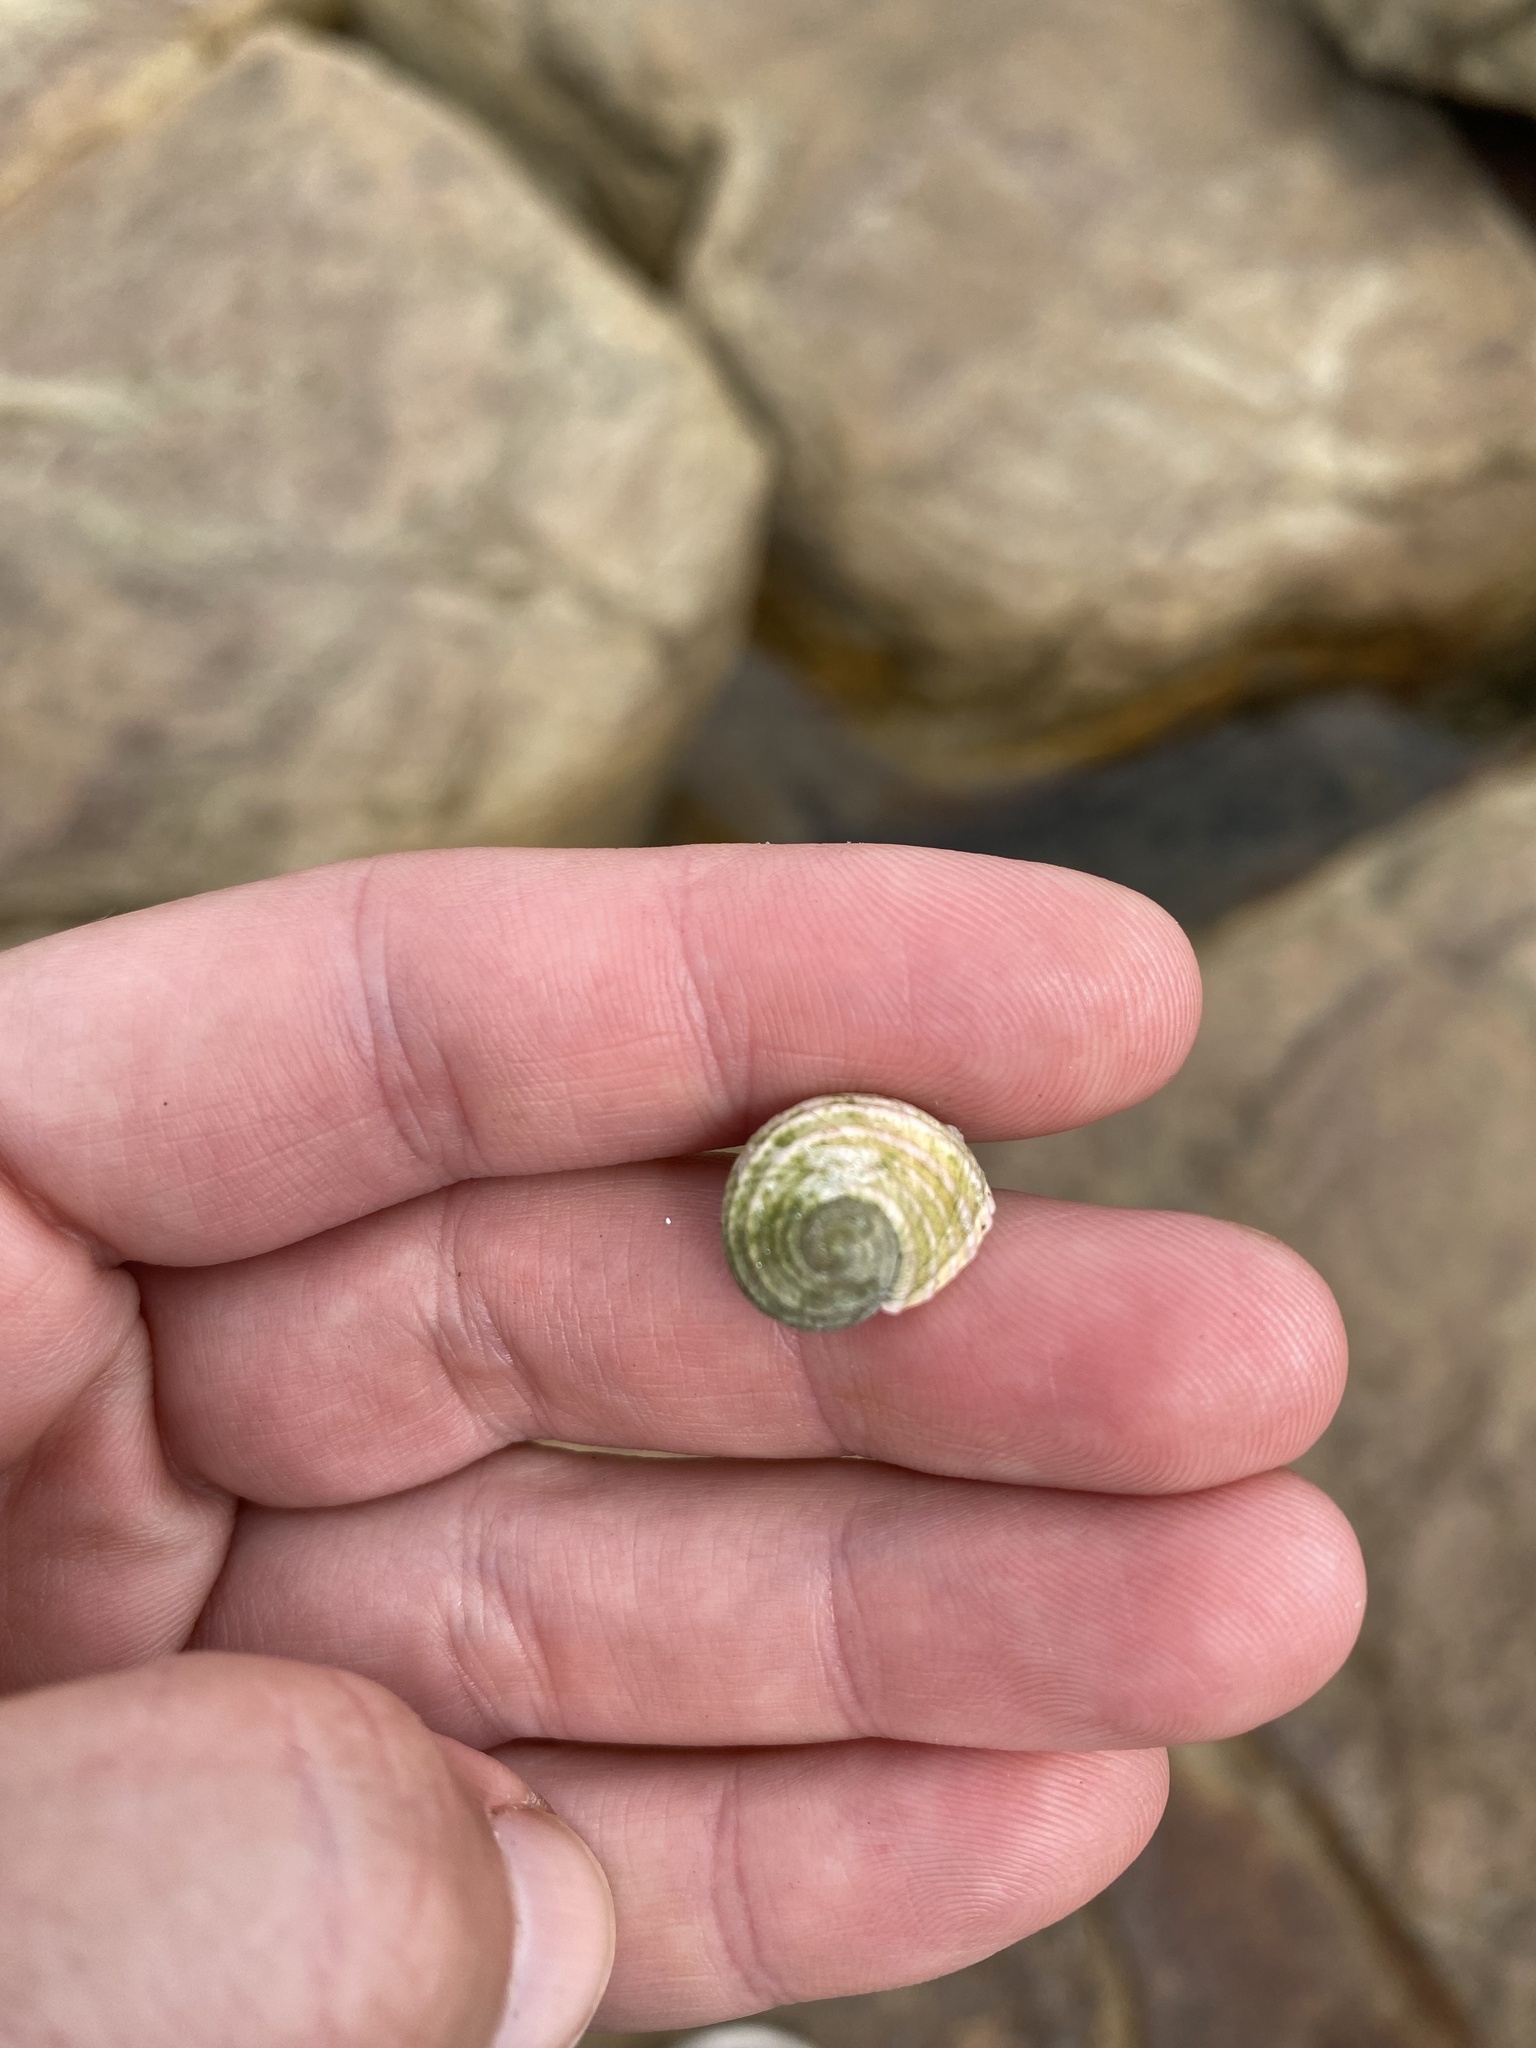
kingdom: Animalia
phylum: Mollusca
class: Gastropoda
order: Cycloneritida
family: Neritidae
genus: Nerita
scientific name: Nerita plicata
